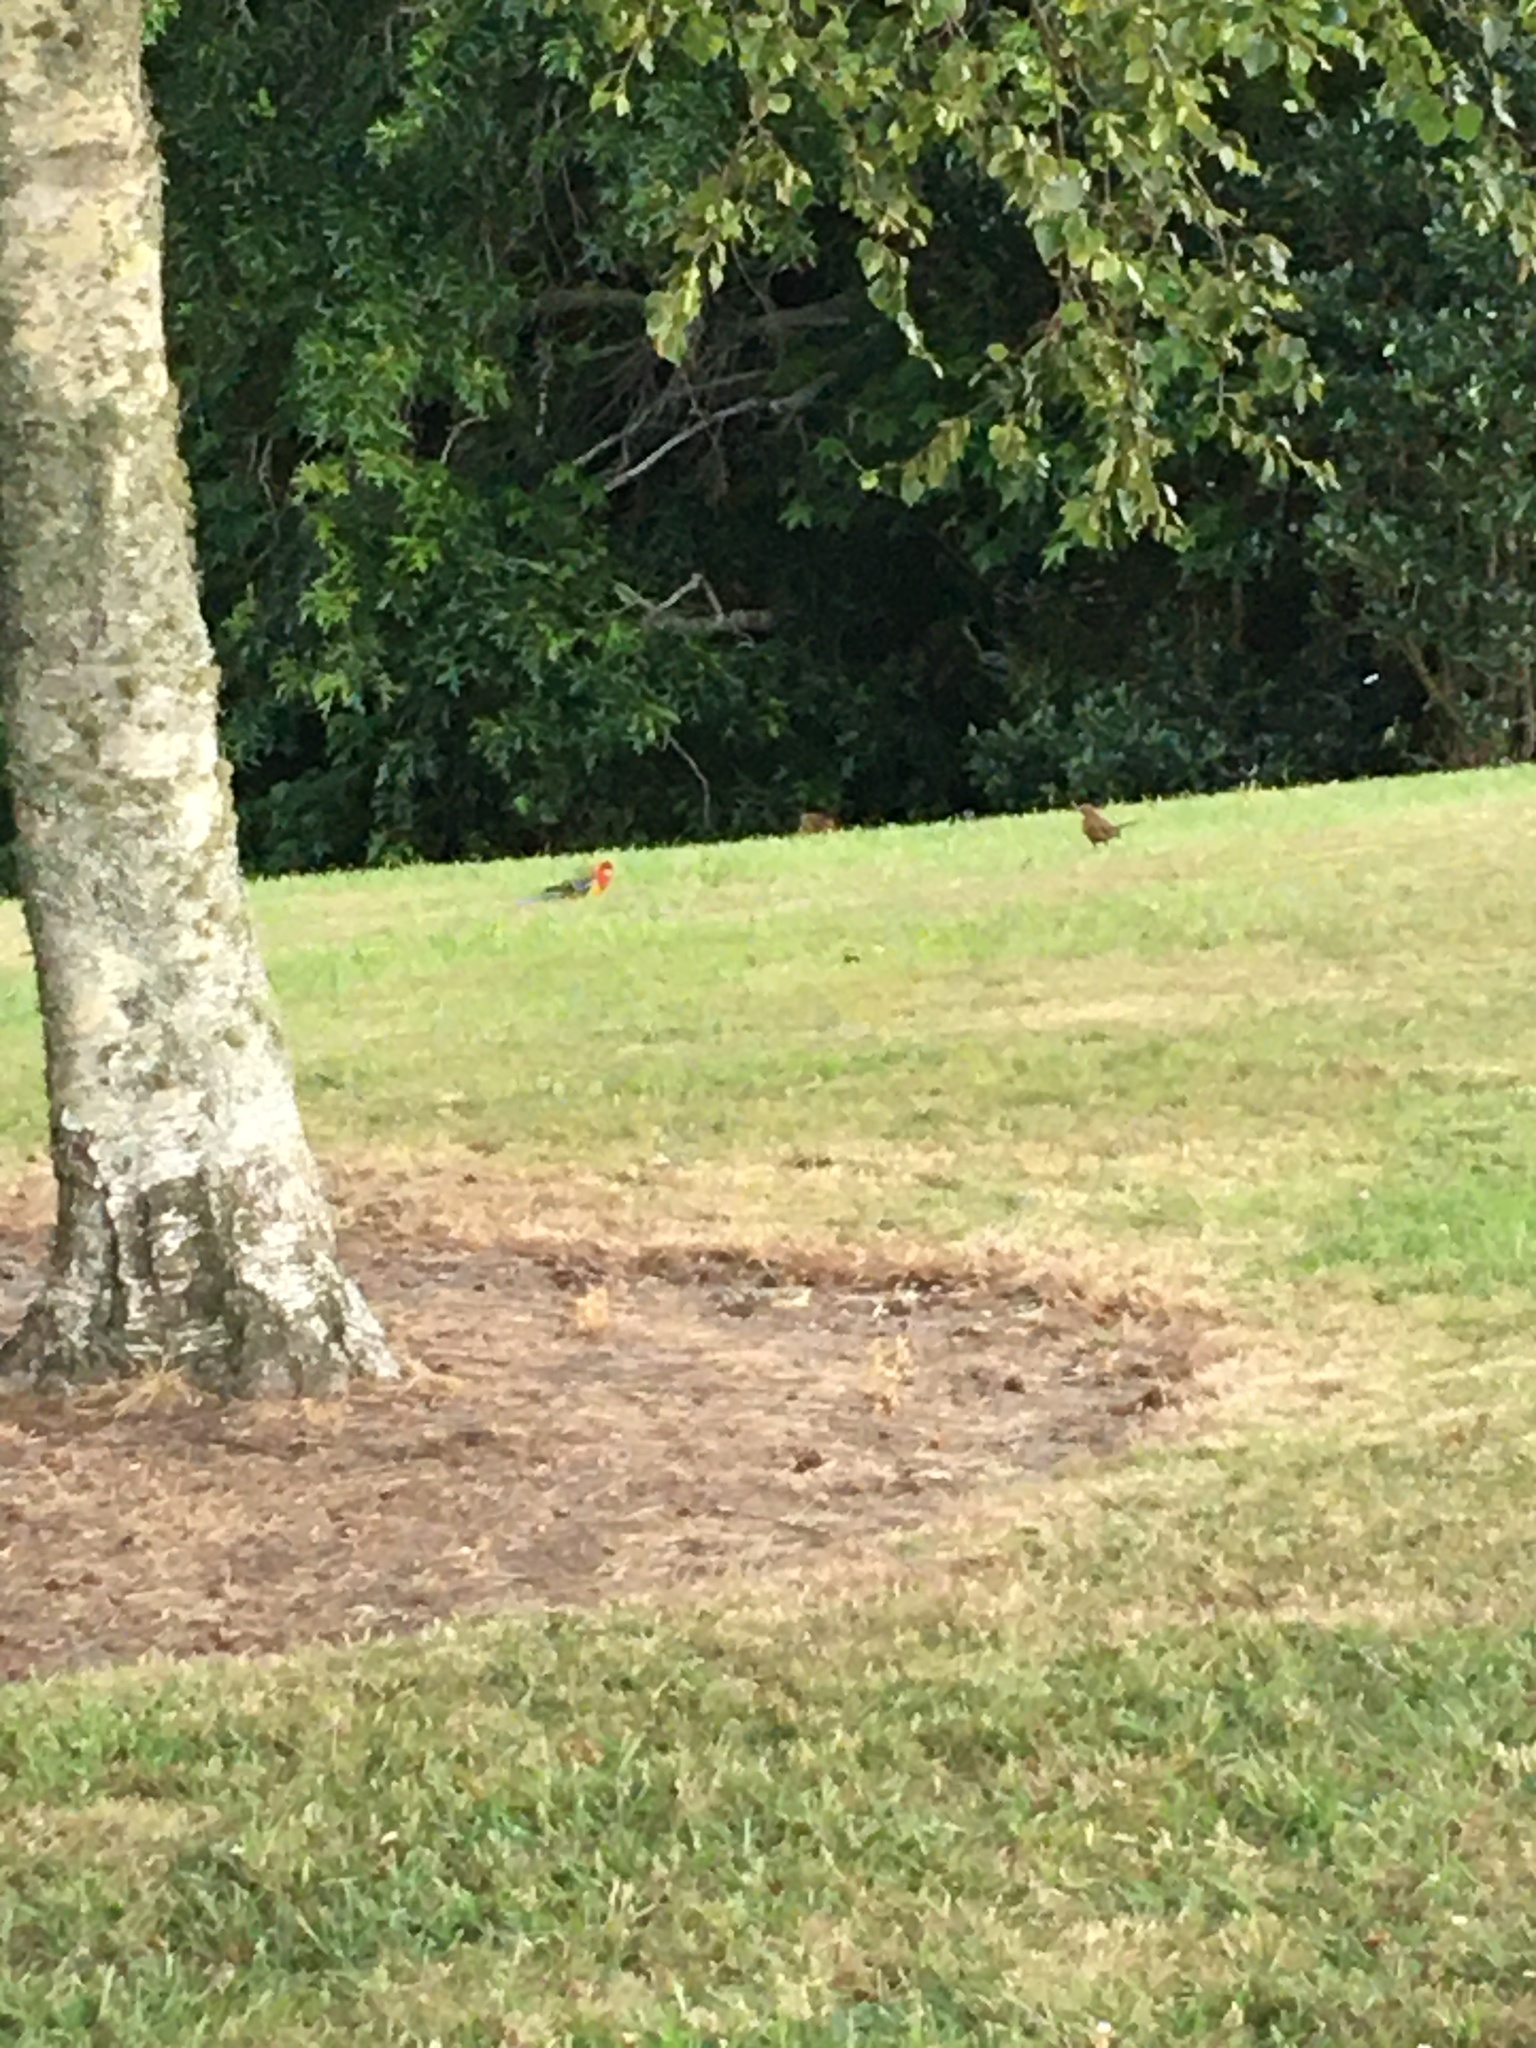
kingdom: Animalia
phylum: Chordata
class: Aves
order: Psittaciformes
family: Psittacidae
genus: Platycercus
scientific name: Platycercus eximius
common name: Eastern rosella
